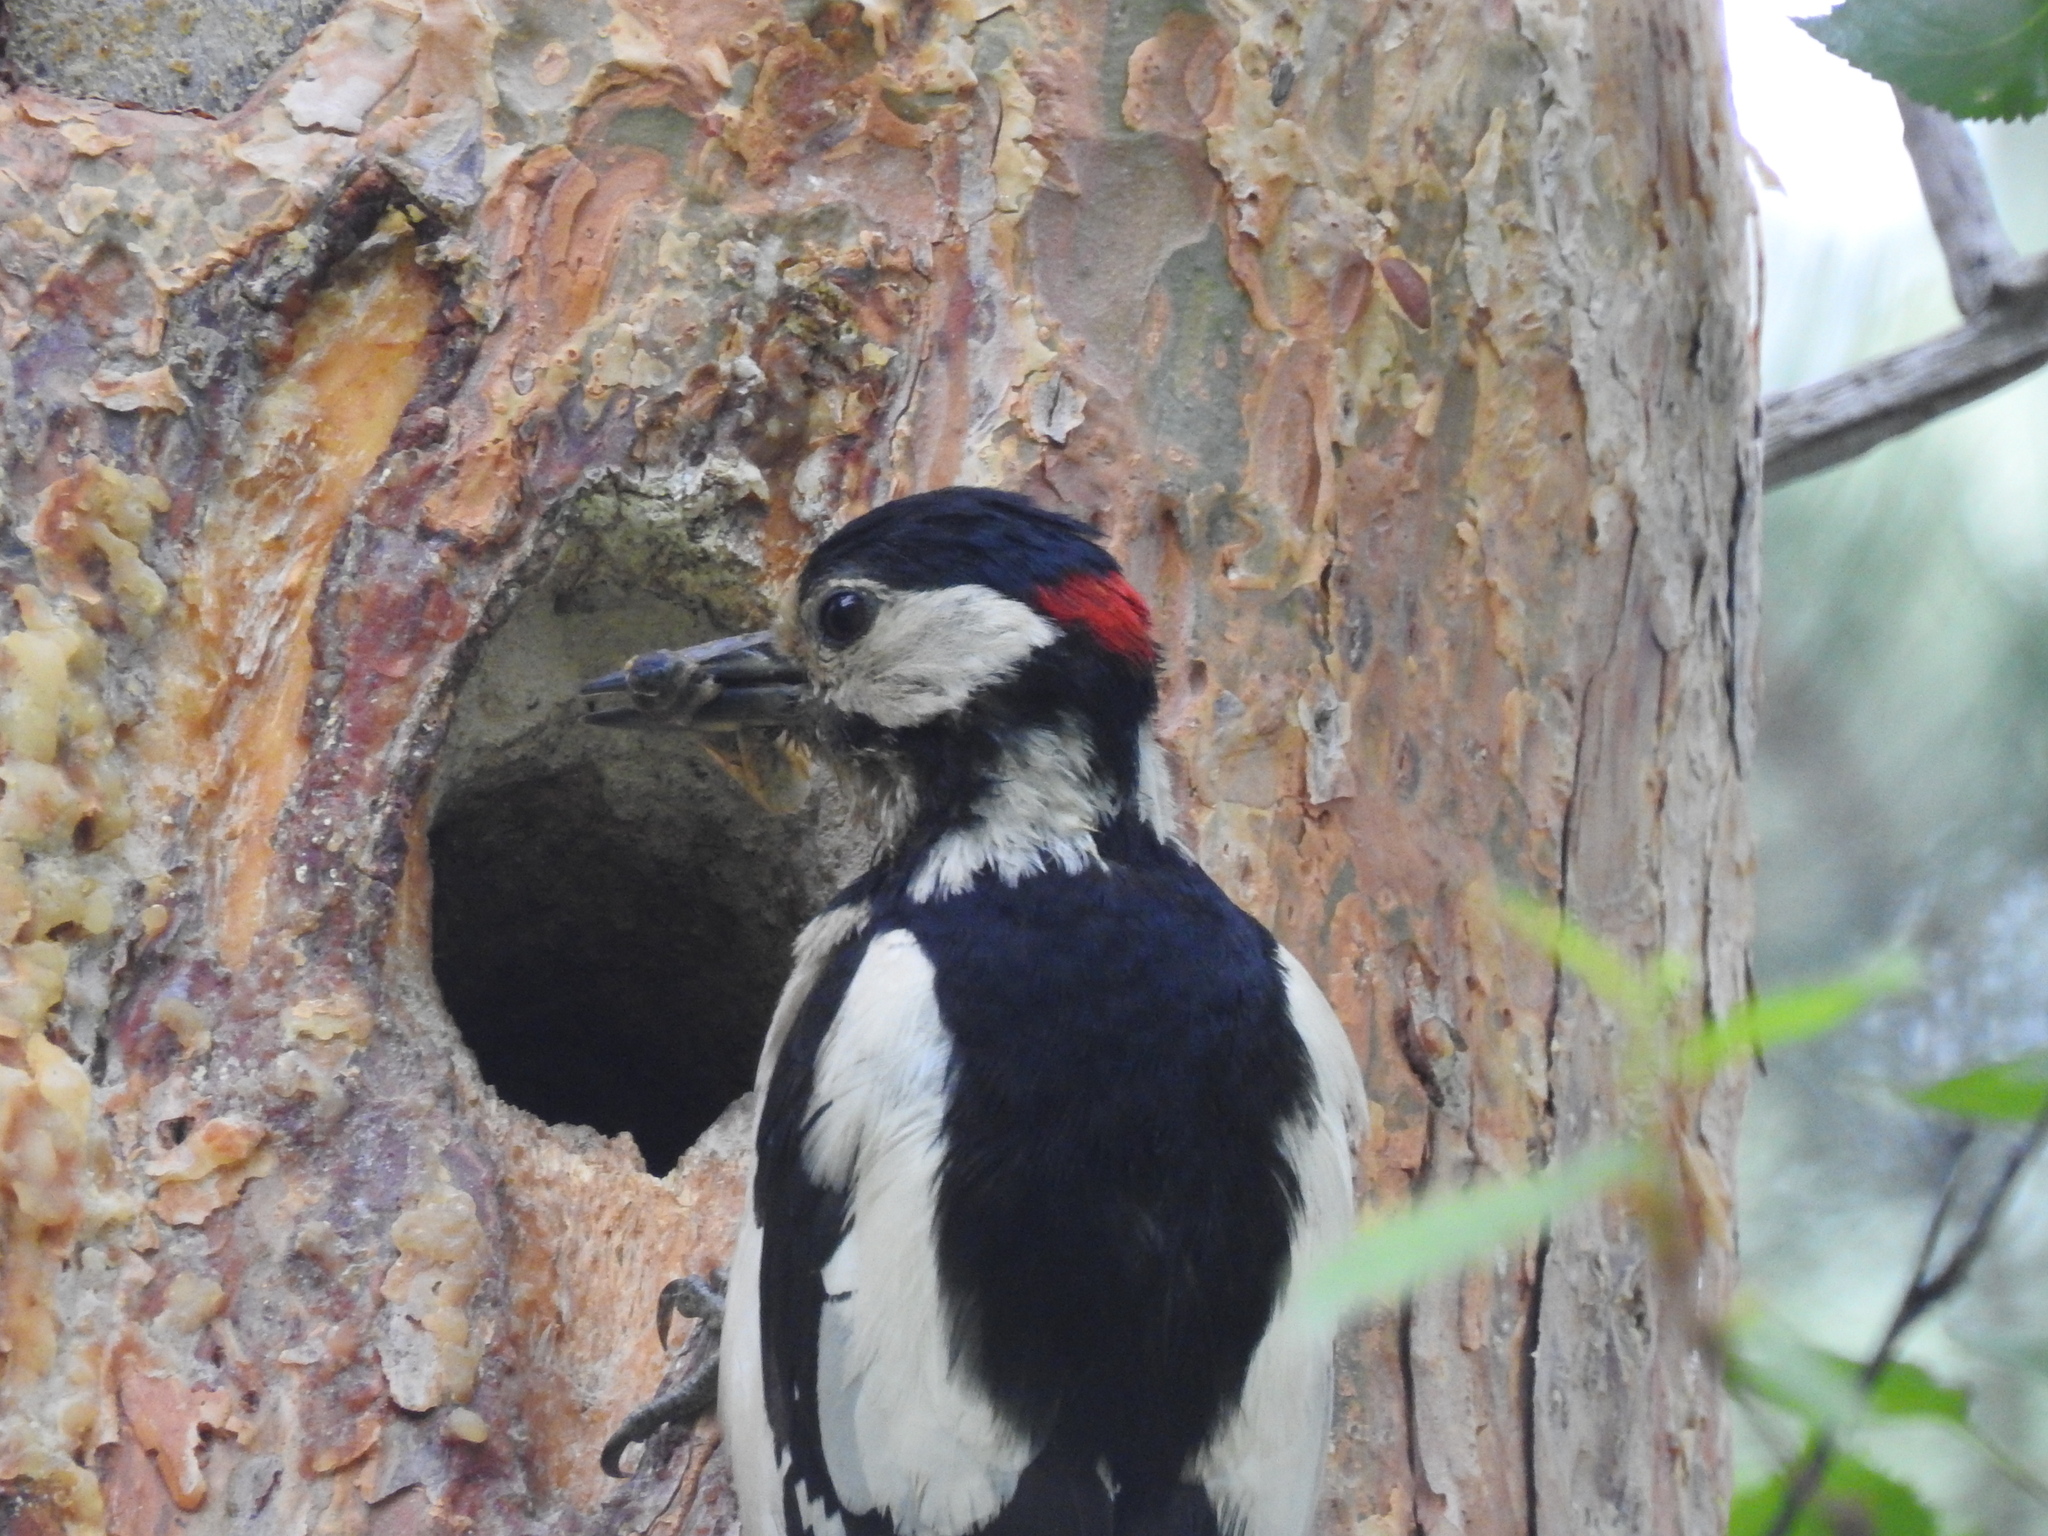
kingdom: Animalia
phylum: Chordata
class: Aves
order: Piciformes
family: Picidae
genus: Dendrocopos
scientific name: Dendrocopos major
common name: Great spotted woodpecker
